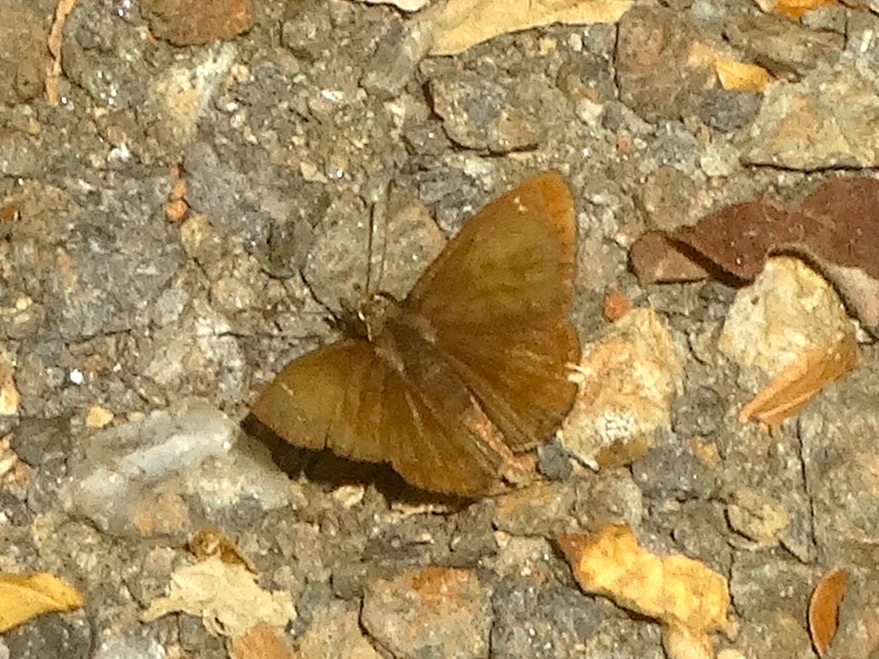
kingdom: Animalia
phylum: Arthropoda
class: Insecta
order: Lepidoptera
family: Hesperiidae
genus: Zopyrion
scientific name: Zopyrion sandace
